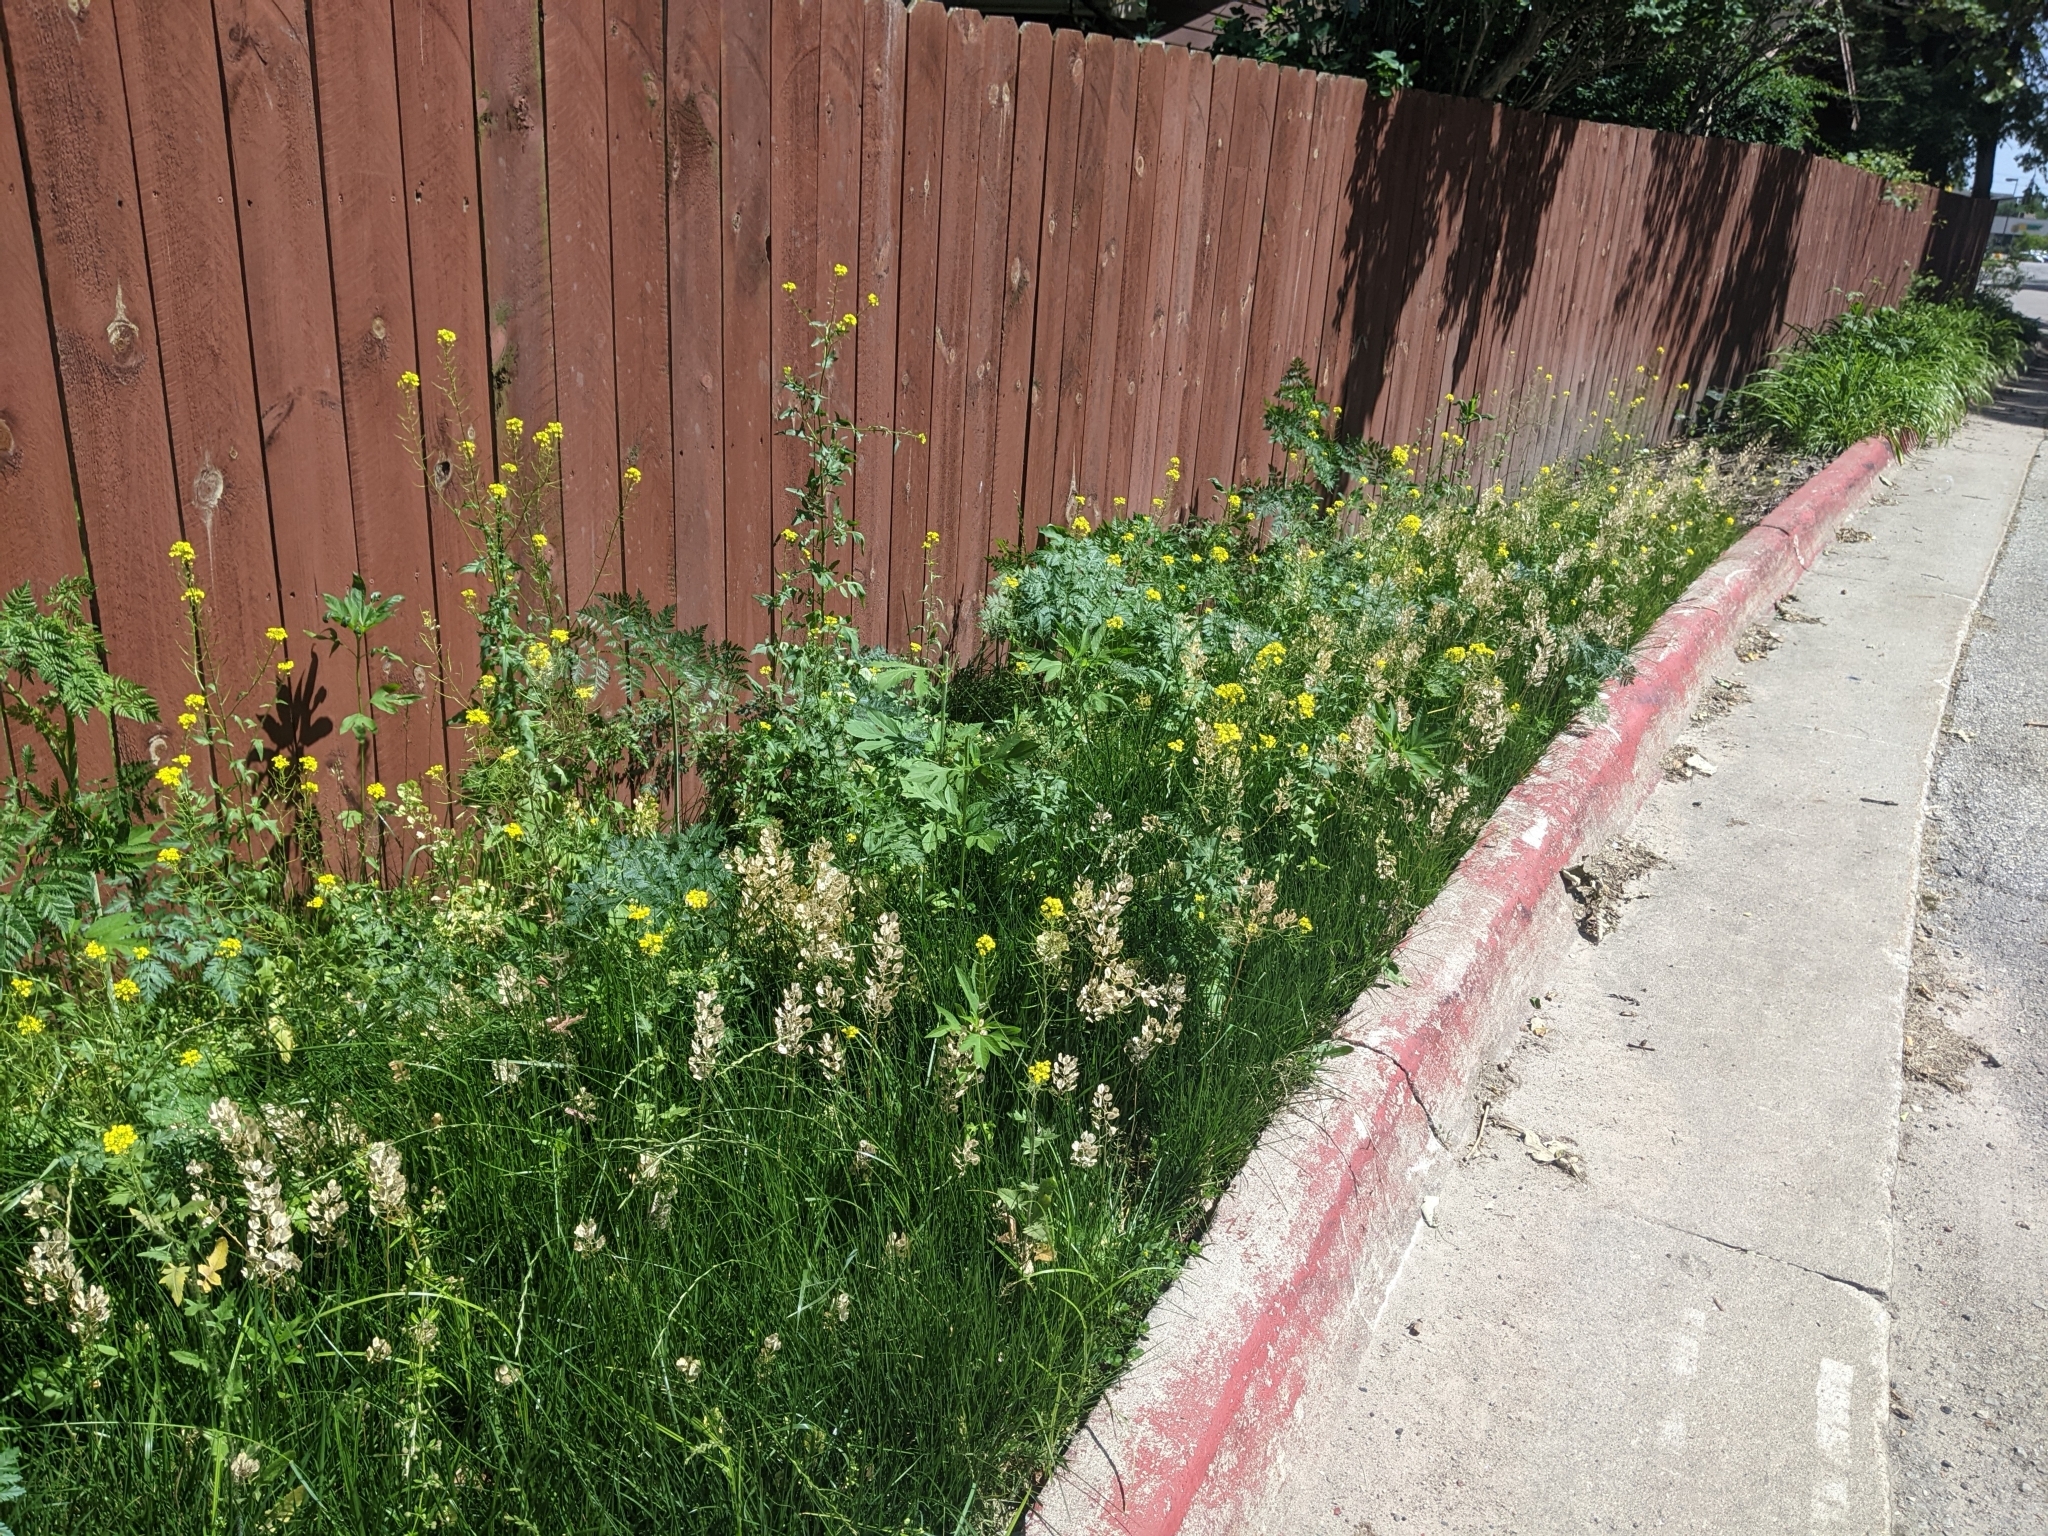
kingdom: Plantae
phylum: Tracheophyta
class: Magnoliopsida
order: Brassicales
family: Brassicaceae
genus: Thlaspi
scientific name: Thlaspi arvense
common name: Field pennycress
